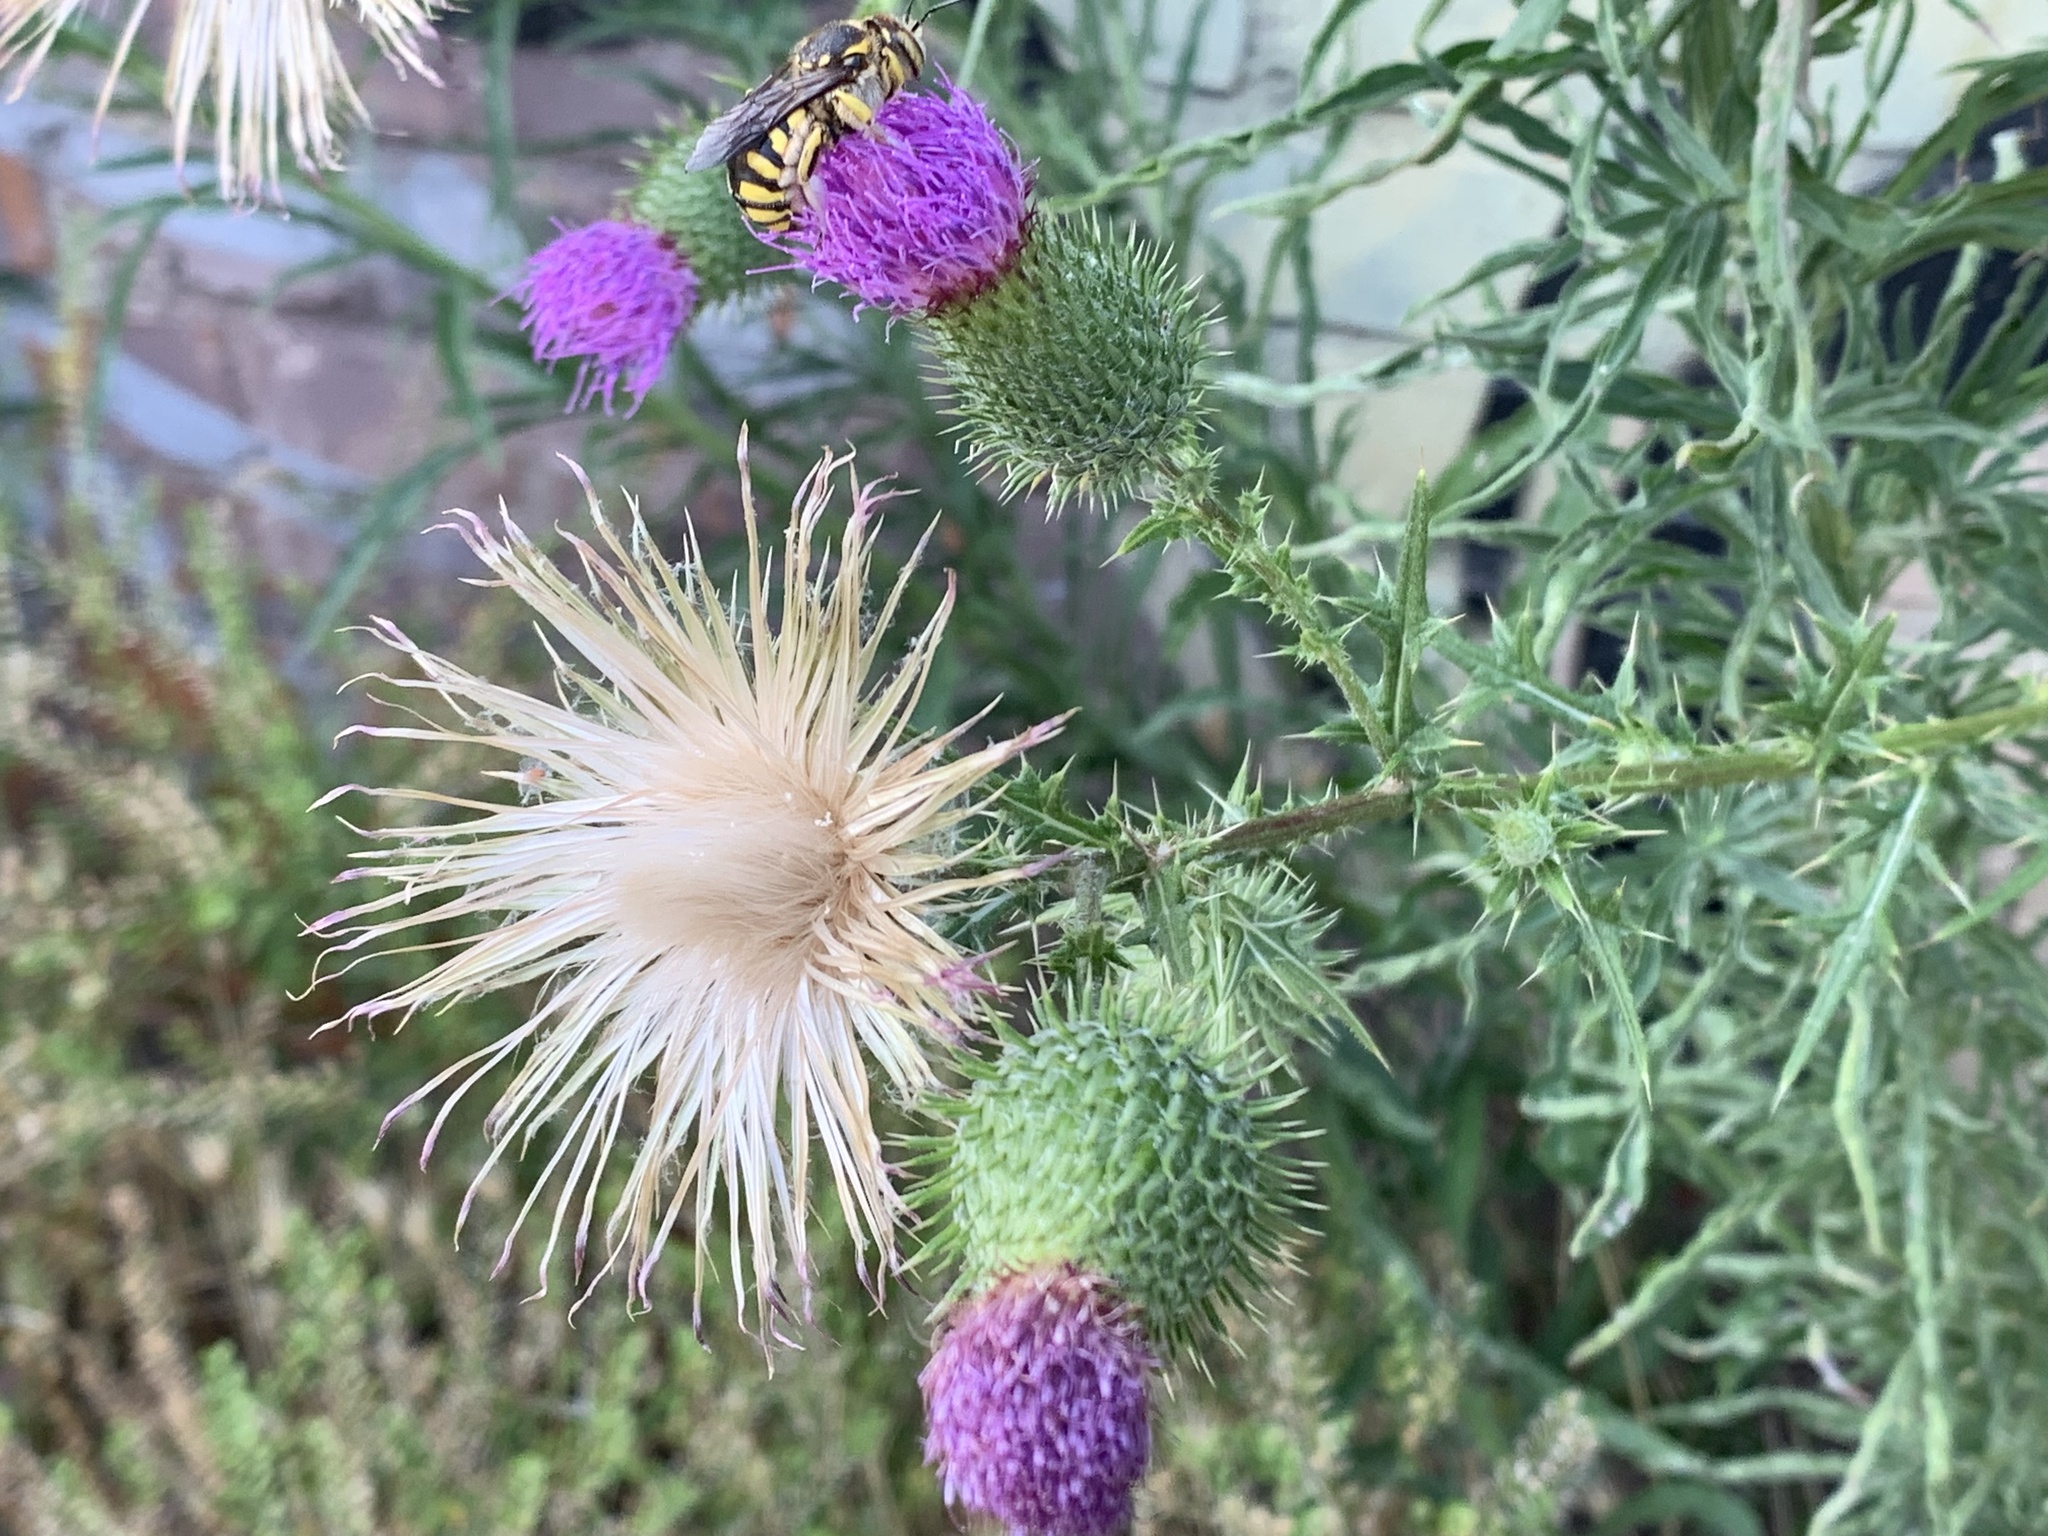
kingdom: Plantae
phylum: Tracheophyta
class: Magnoliopsida
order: Asterales
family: Asteraceae
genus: Cirsium
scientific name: Cirsium vulgare
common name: Bull thistle
